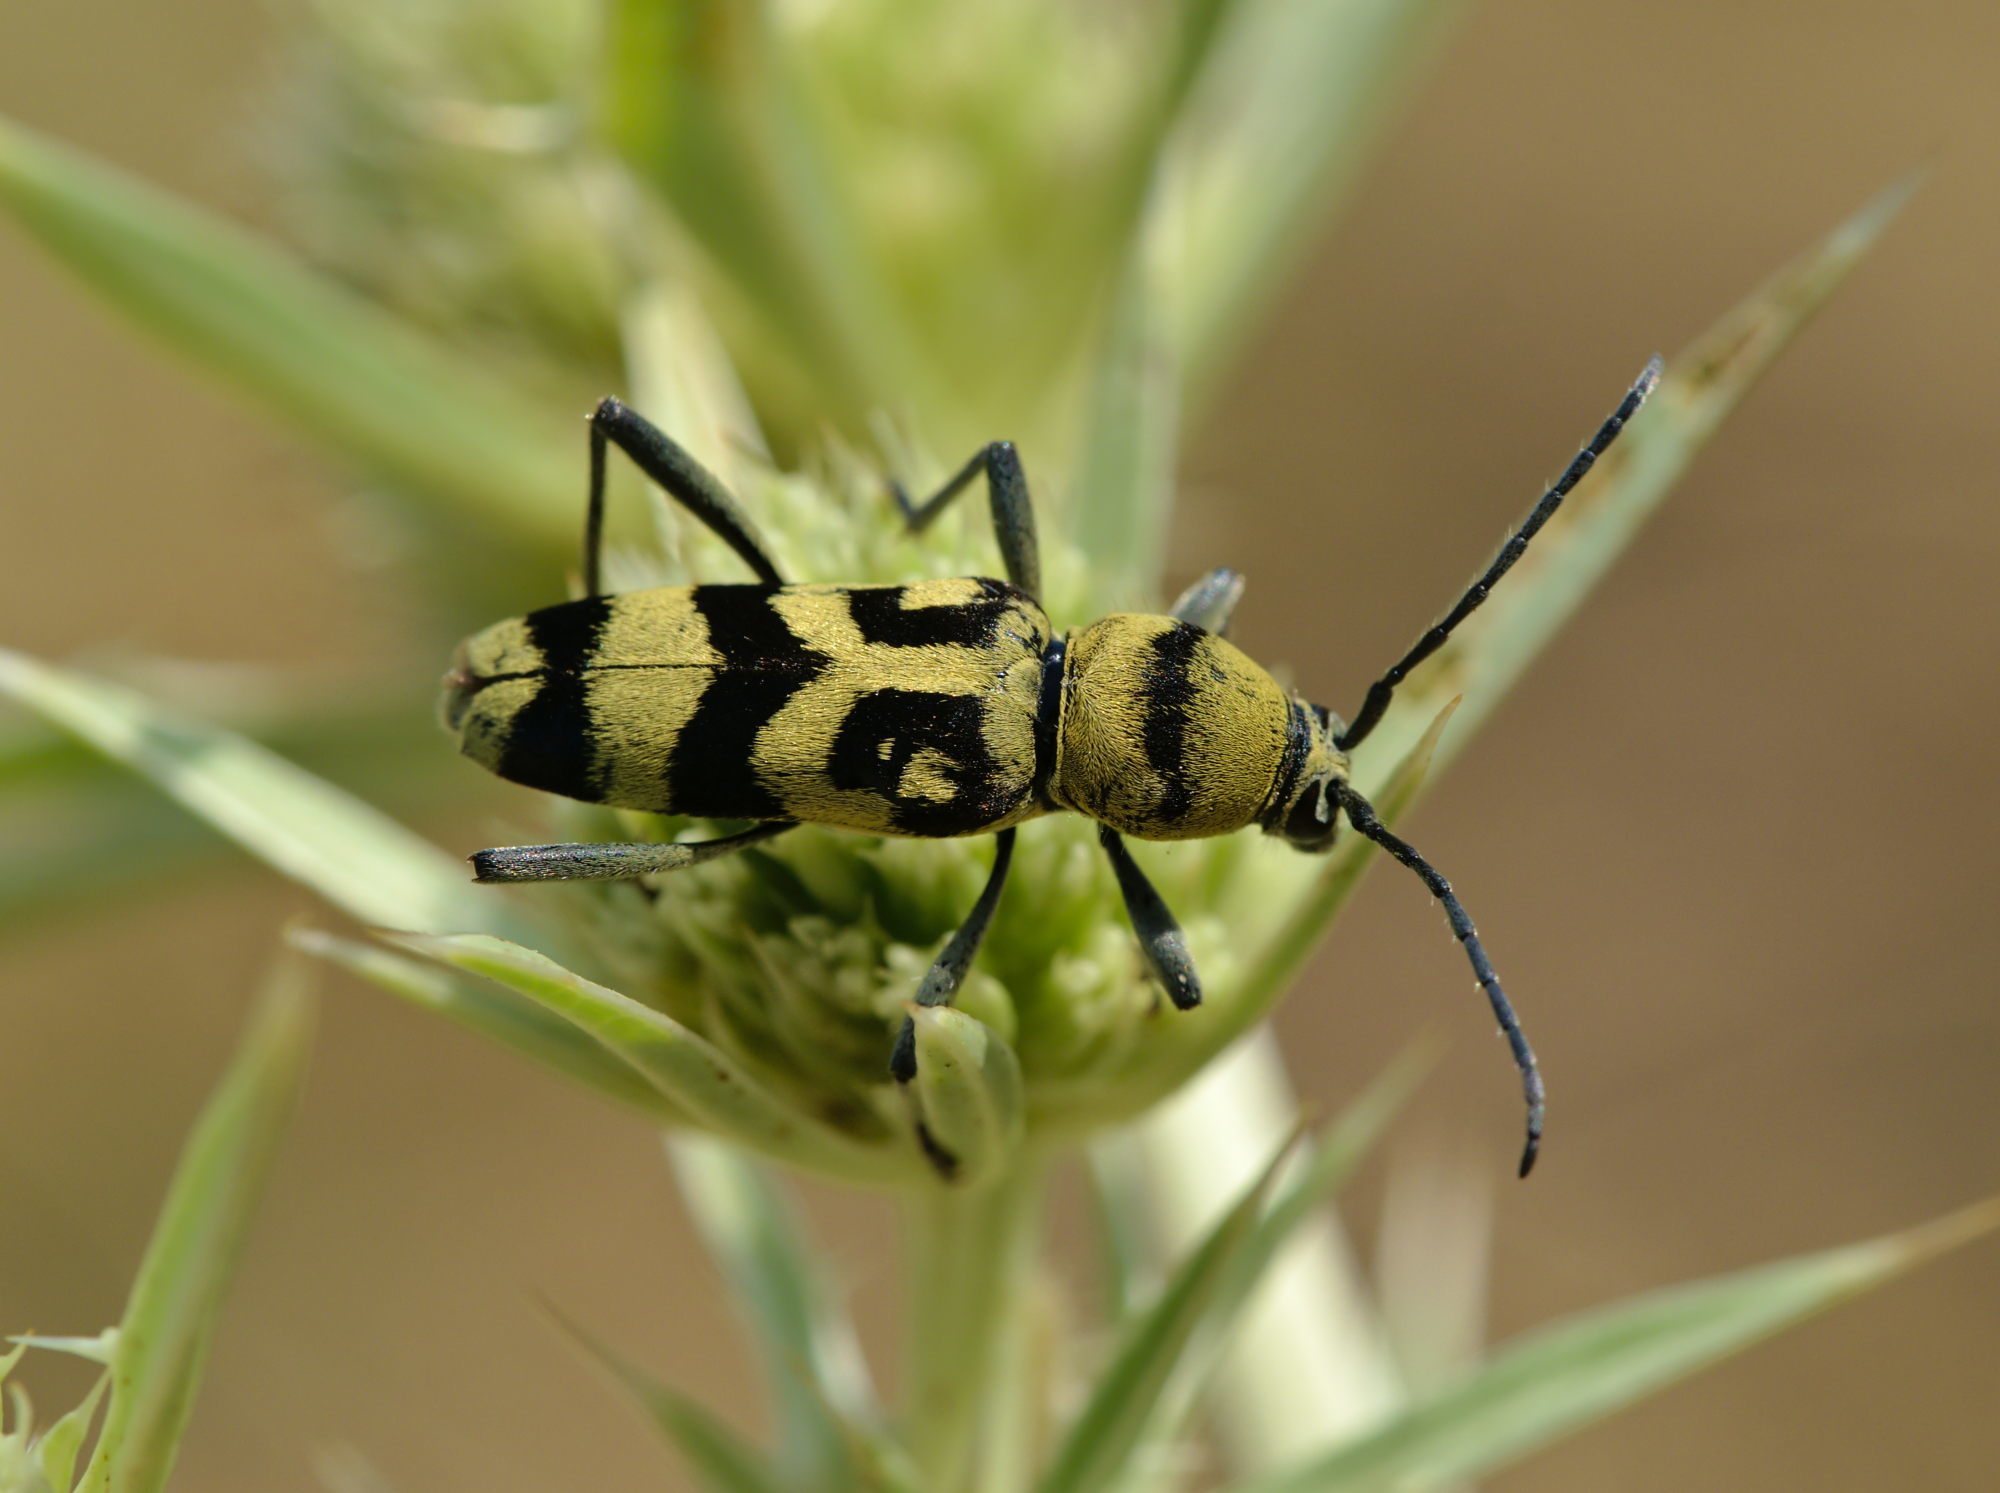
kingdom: Animalia
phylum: Arthropoda
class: Insecta
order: Coleoptera
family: Cerambycidae
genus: Chlorophorus
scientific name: Chlorophorus varius
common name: Grape wood borer
